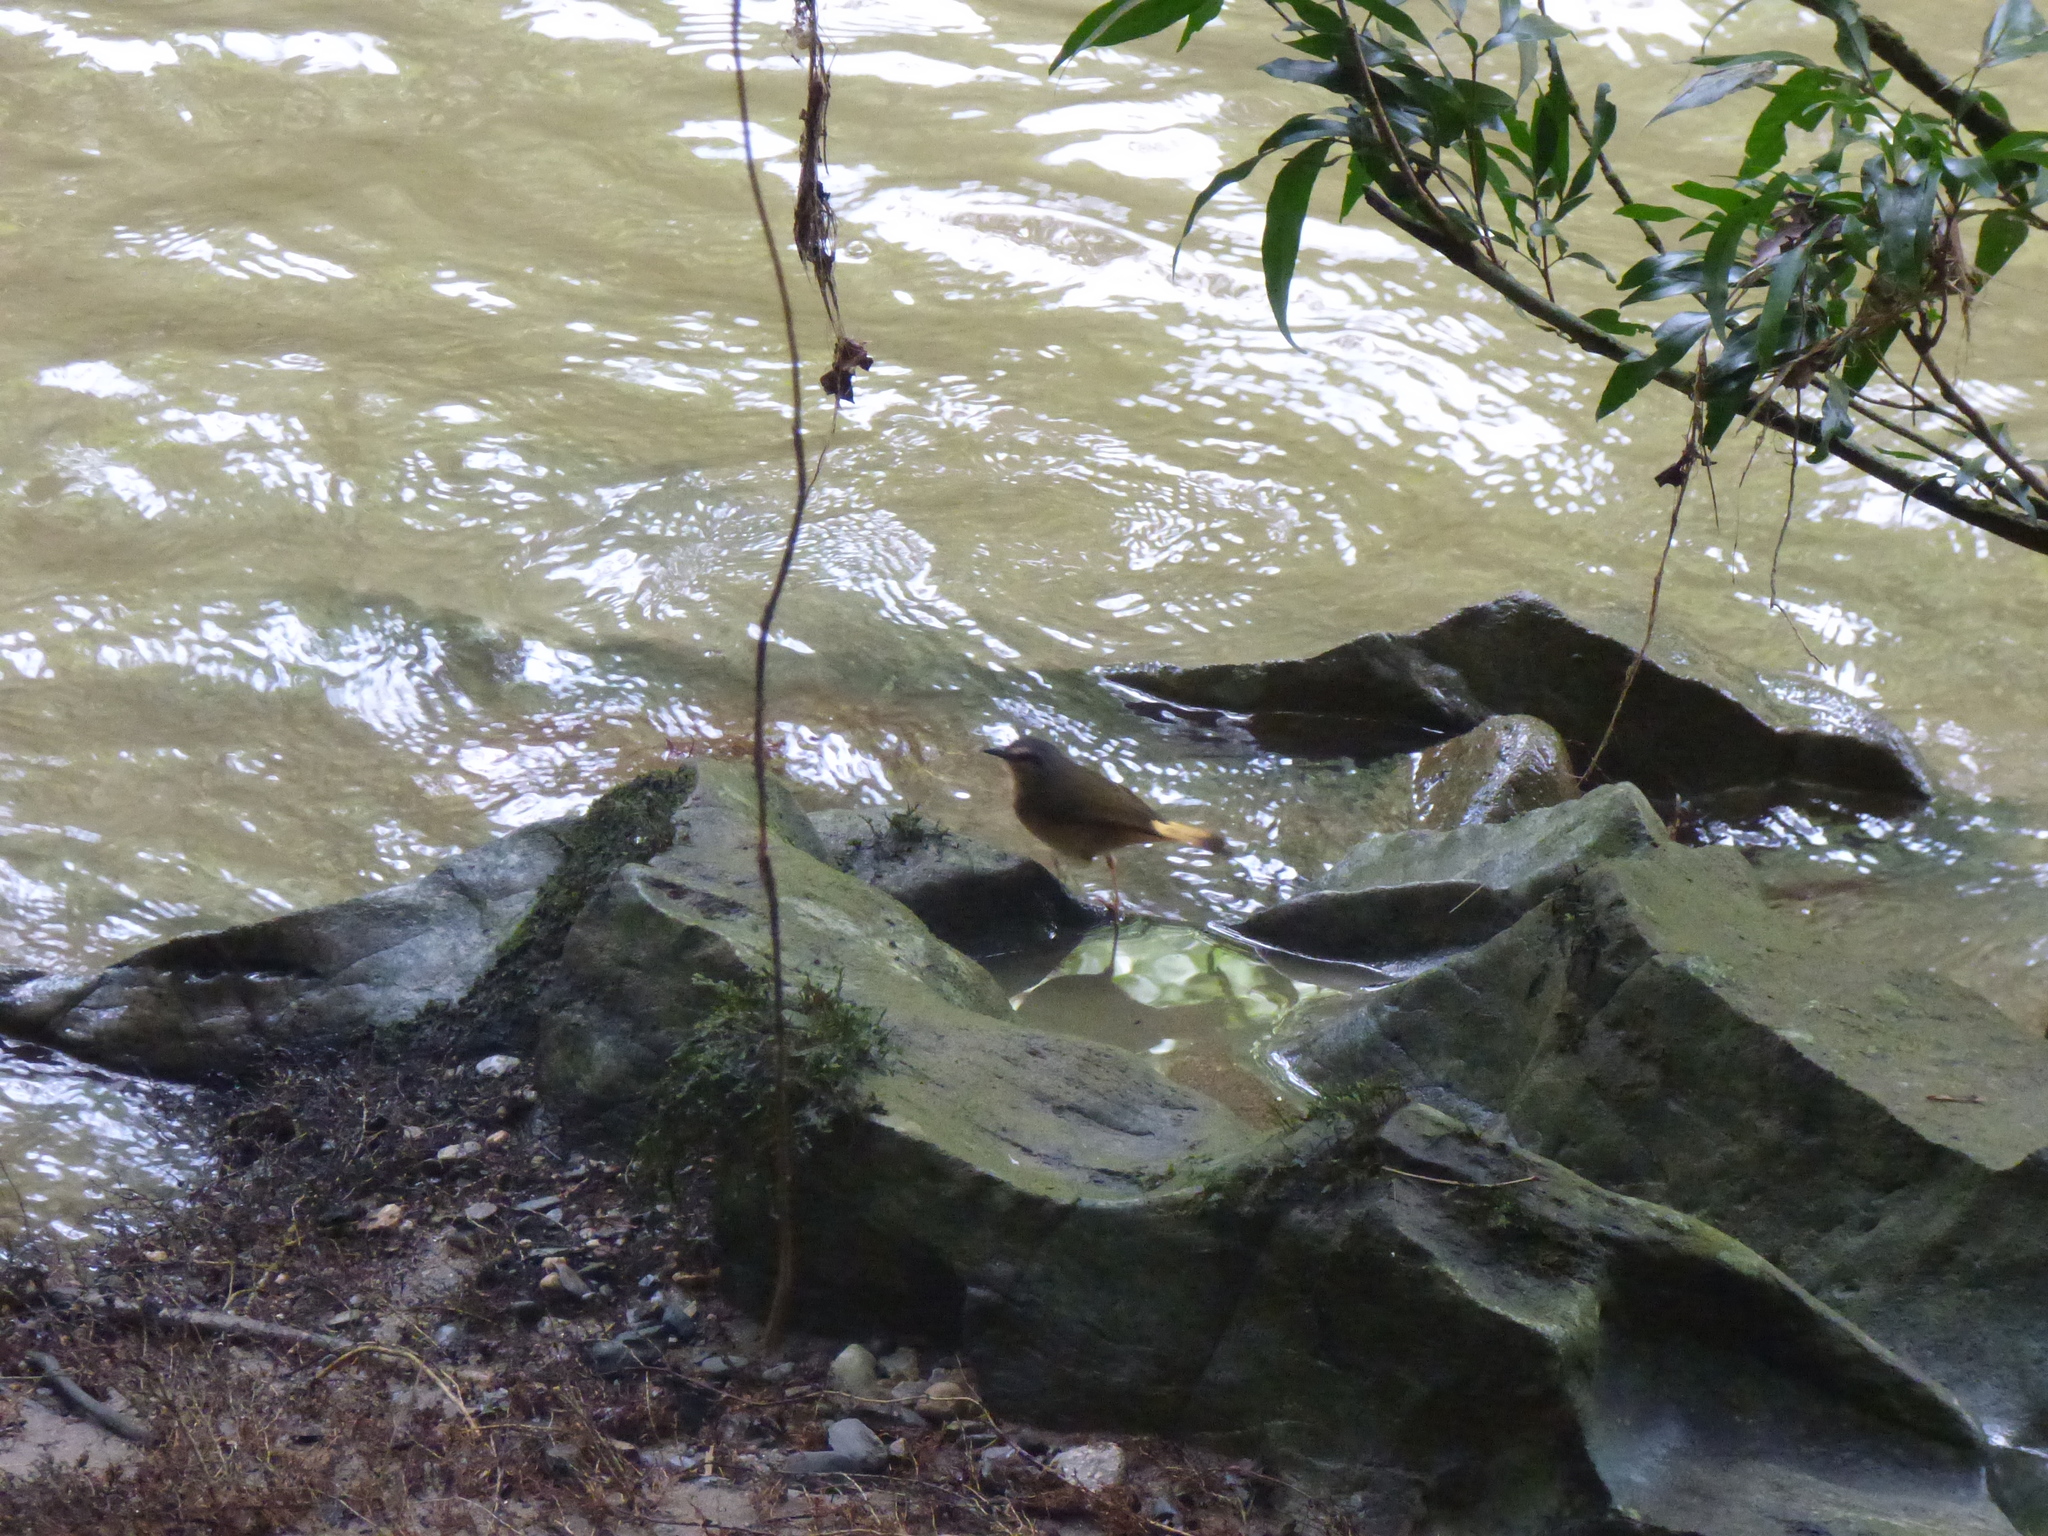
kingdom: Animalia
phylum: Chordata
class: Aves
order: Passeriformes
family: Parulidae
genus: Myiothlypis
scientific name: Myiothlypis fulvicauda
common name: Buff-rumped warbler
